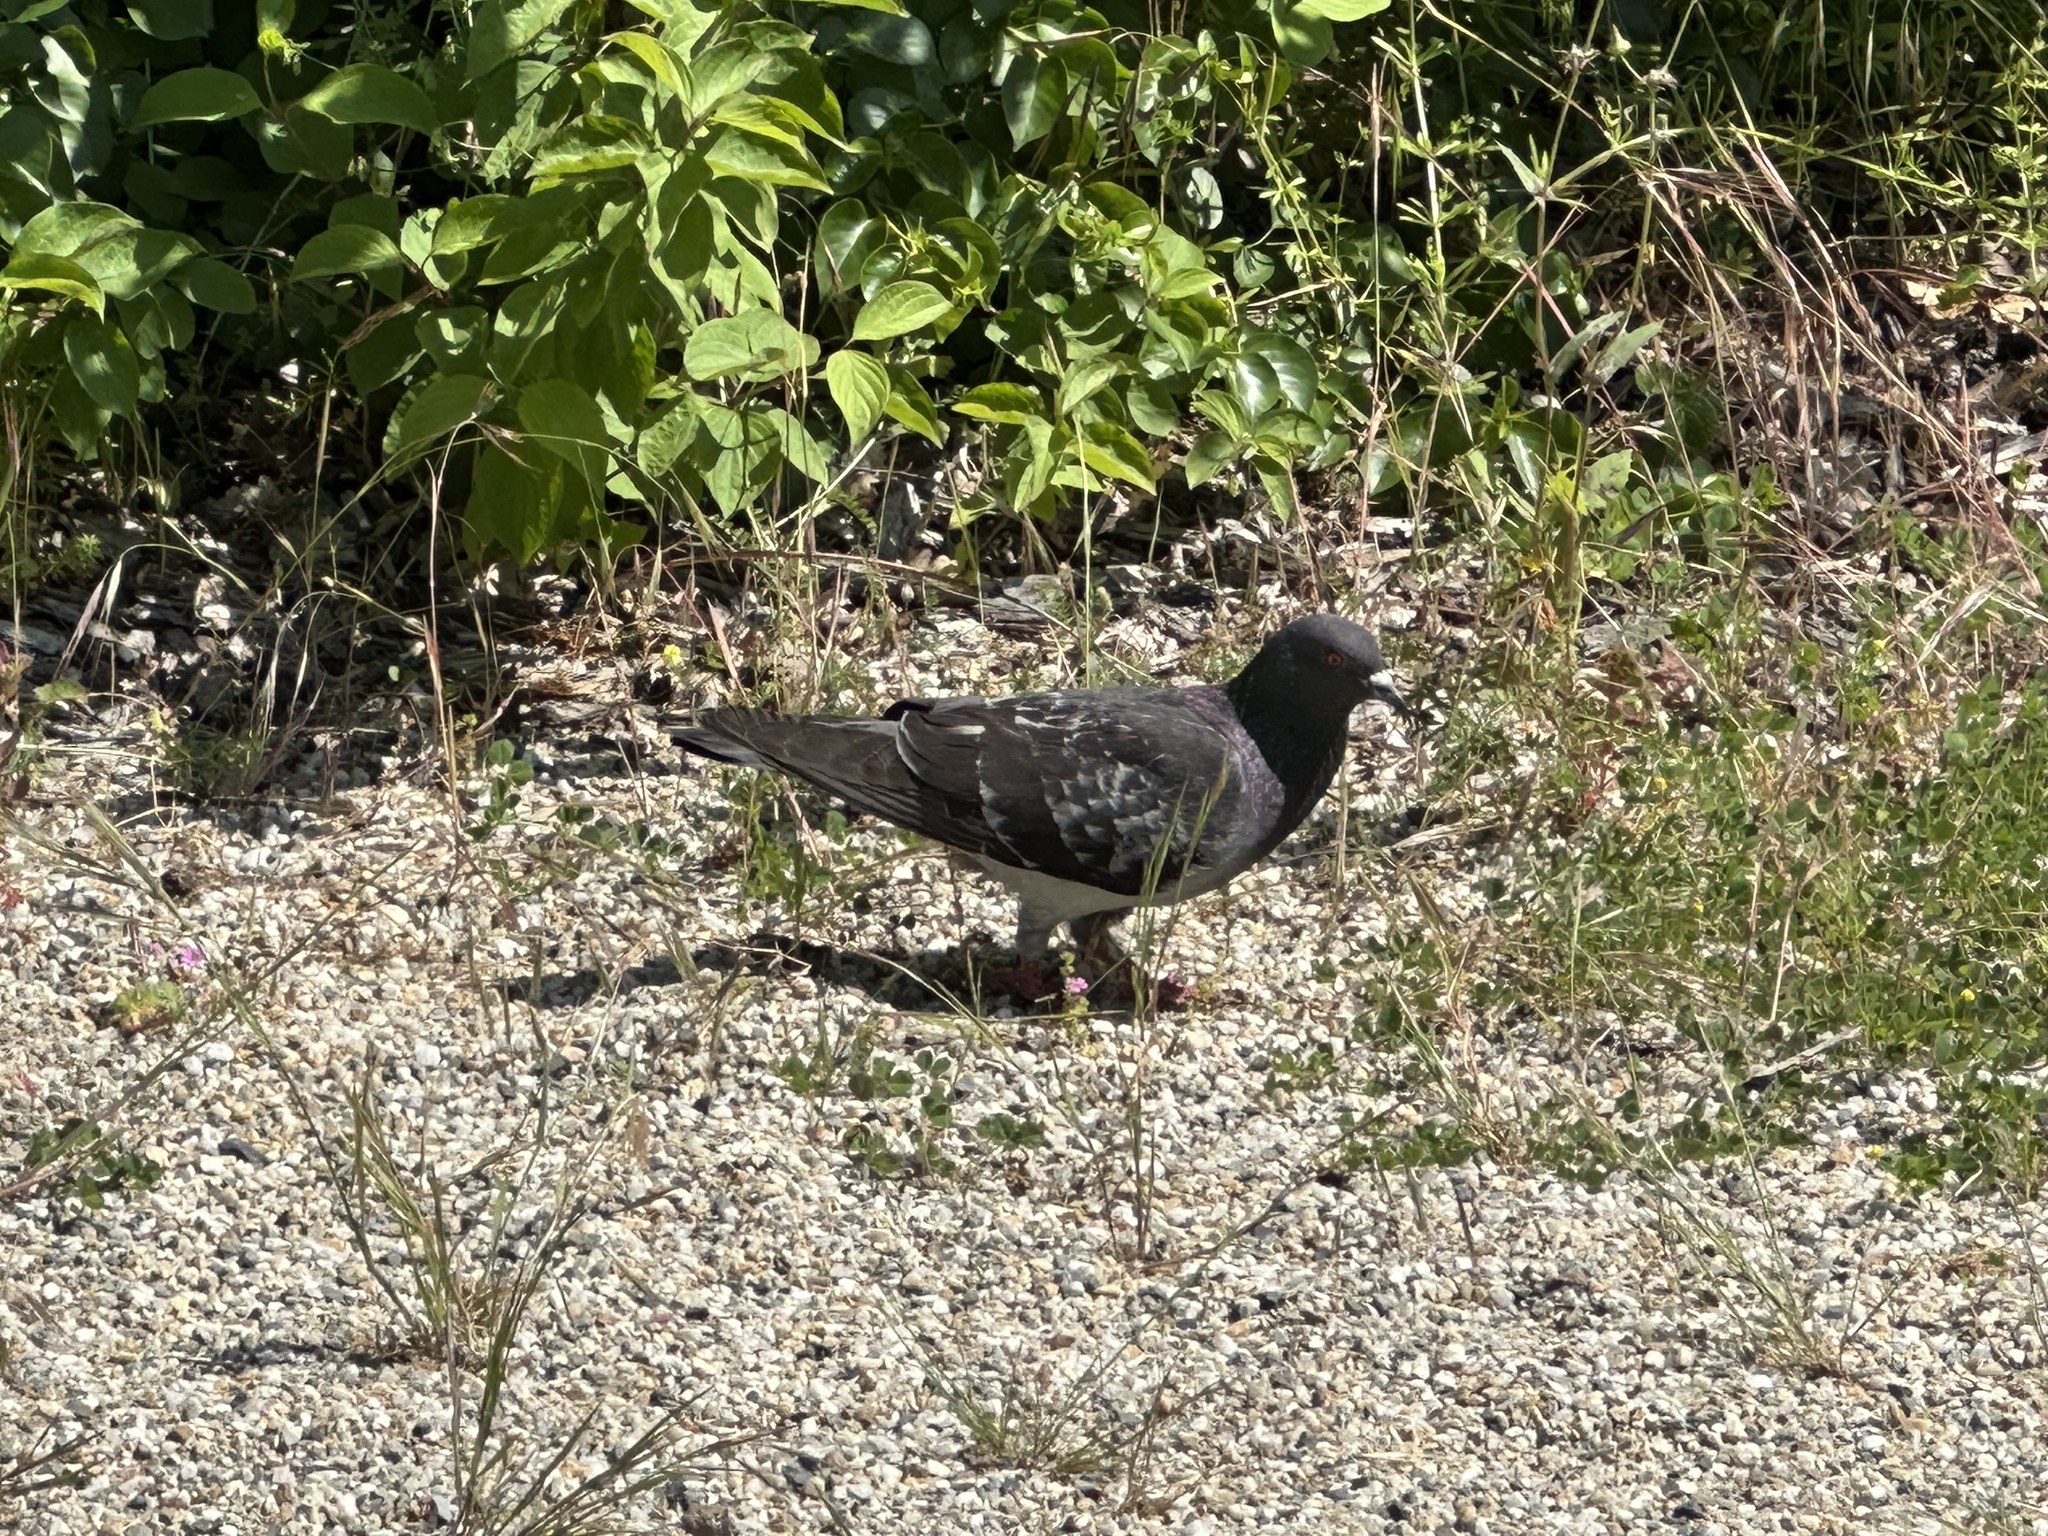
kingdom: Animalia
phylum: Chordata
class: Aves
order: Columbiformes
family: Columbidae
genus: Columba
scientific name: Columba livia
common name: Rock pigeon
